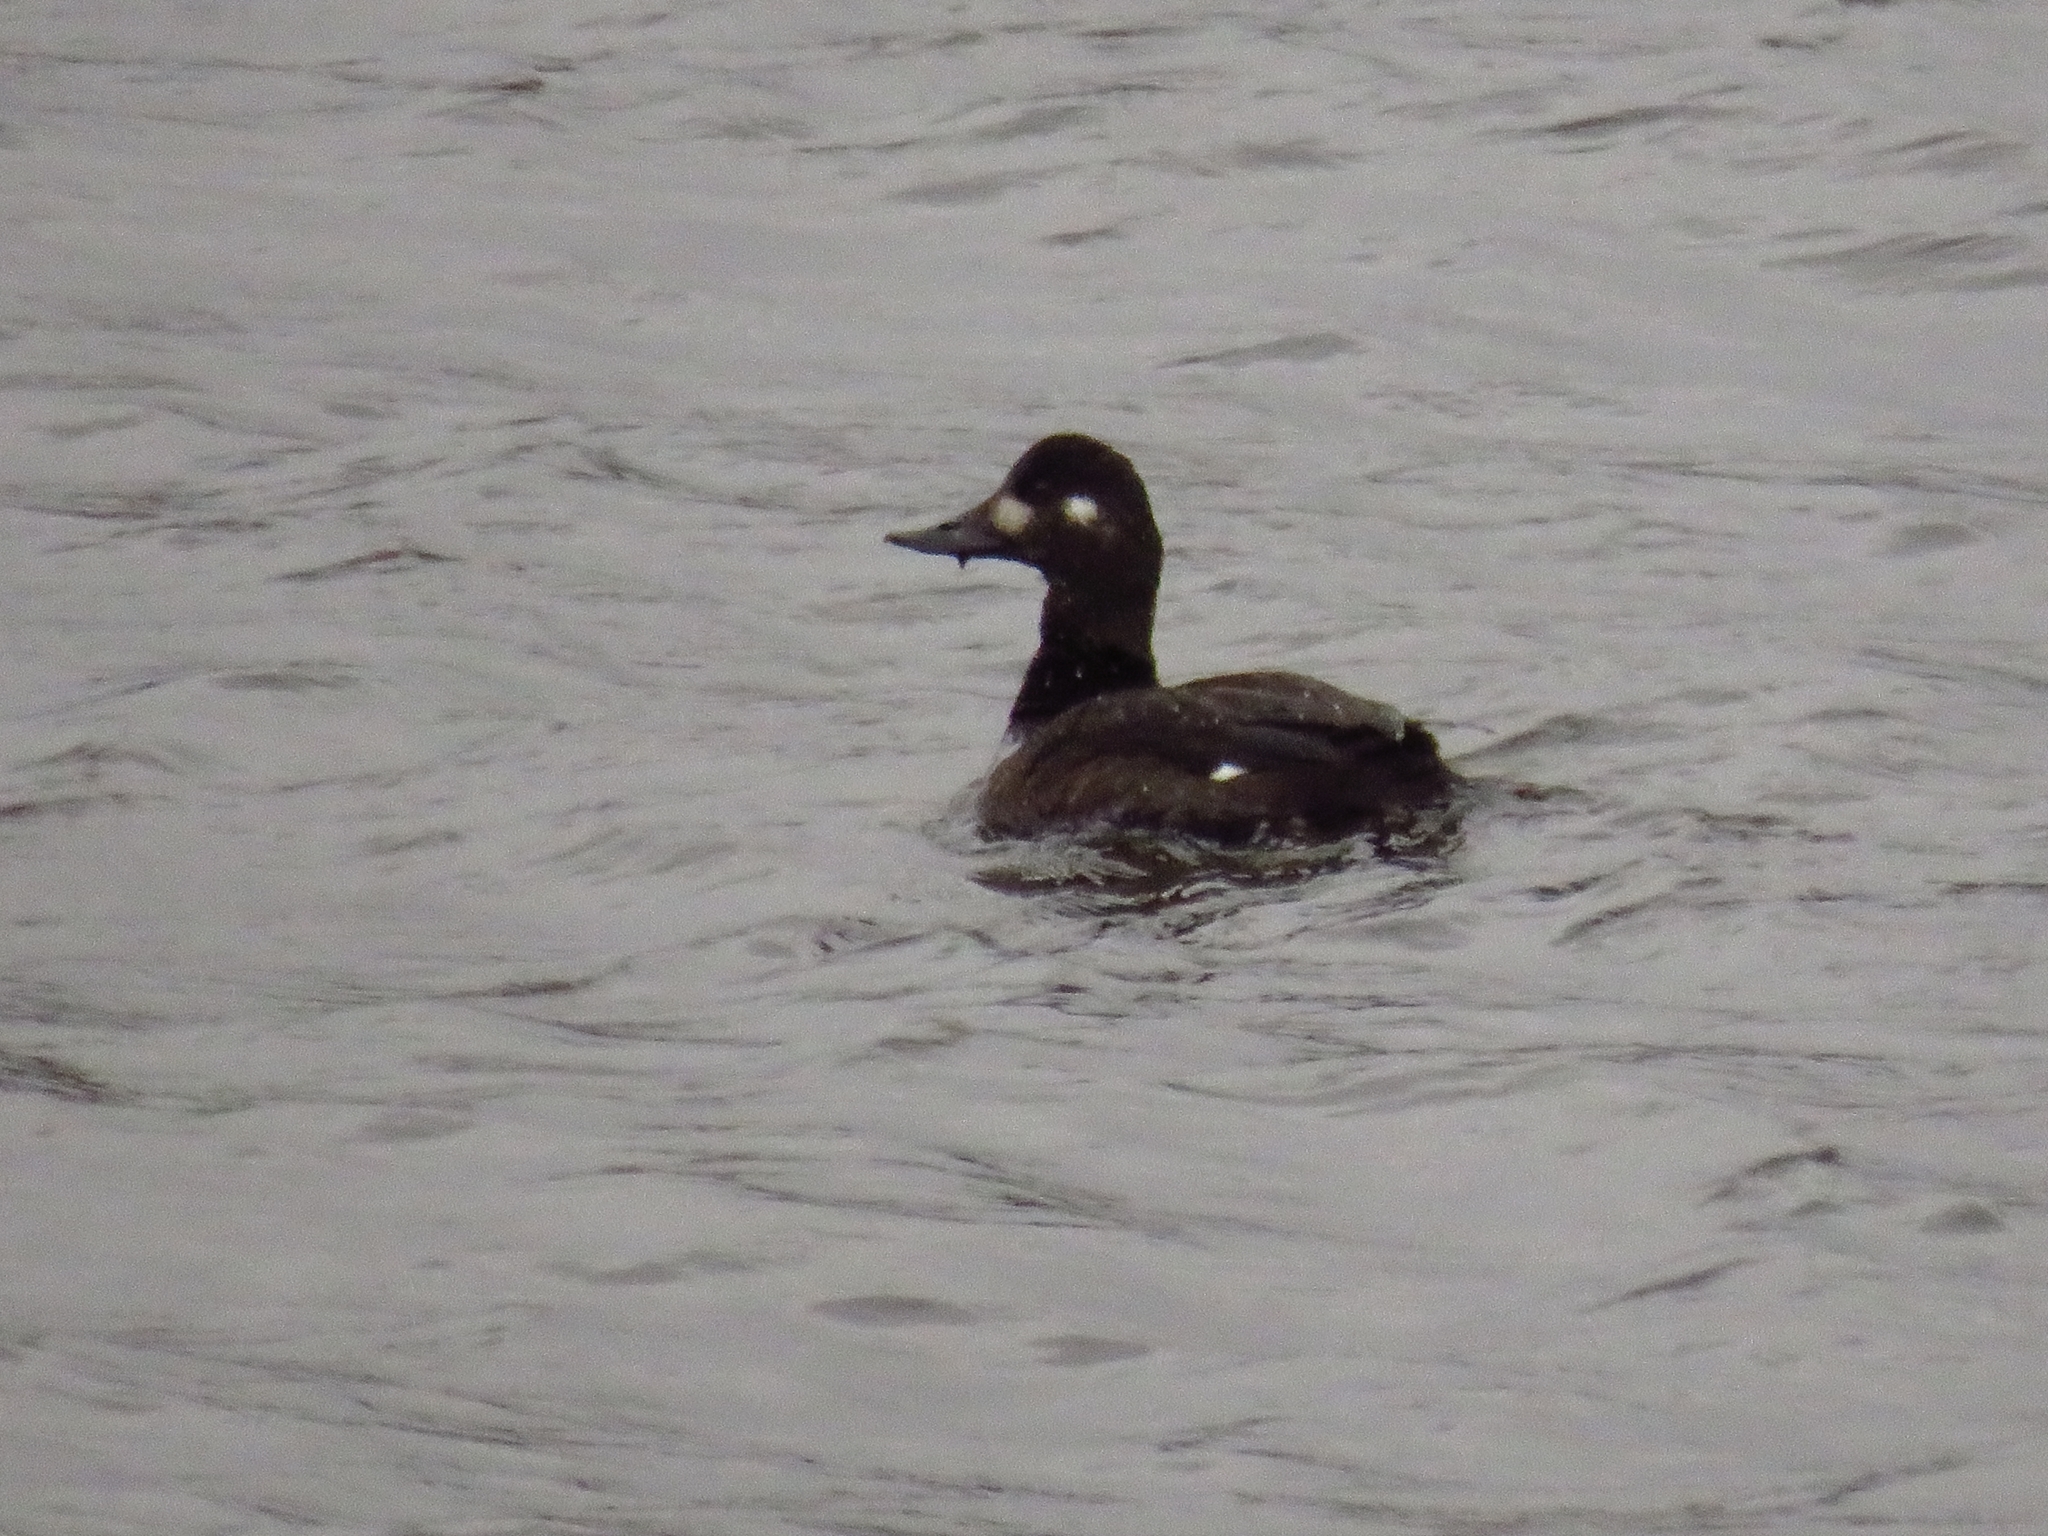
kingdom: Animalia
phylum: Chordata
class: Aves
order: Anseriformes
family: Anatidae
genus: Melanitta
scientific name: Melanitta fusca
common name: Velvet scoter
